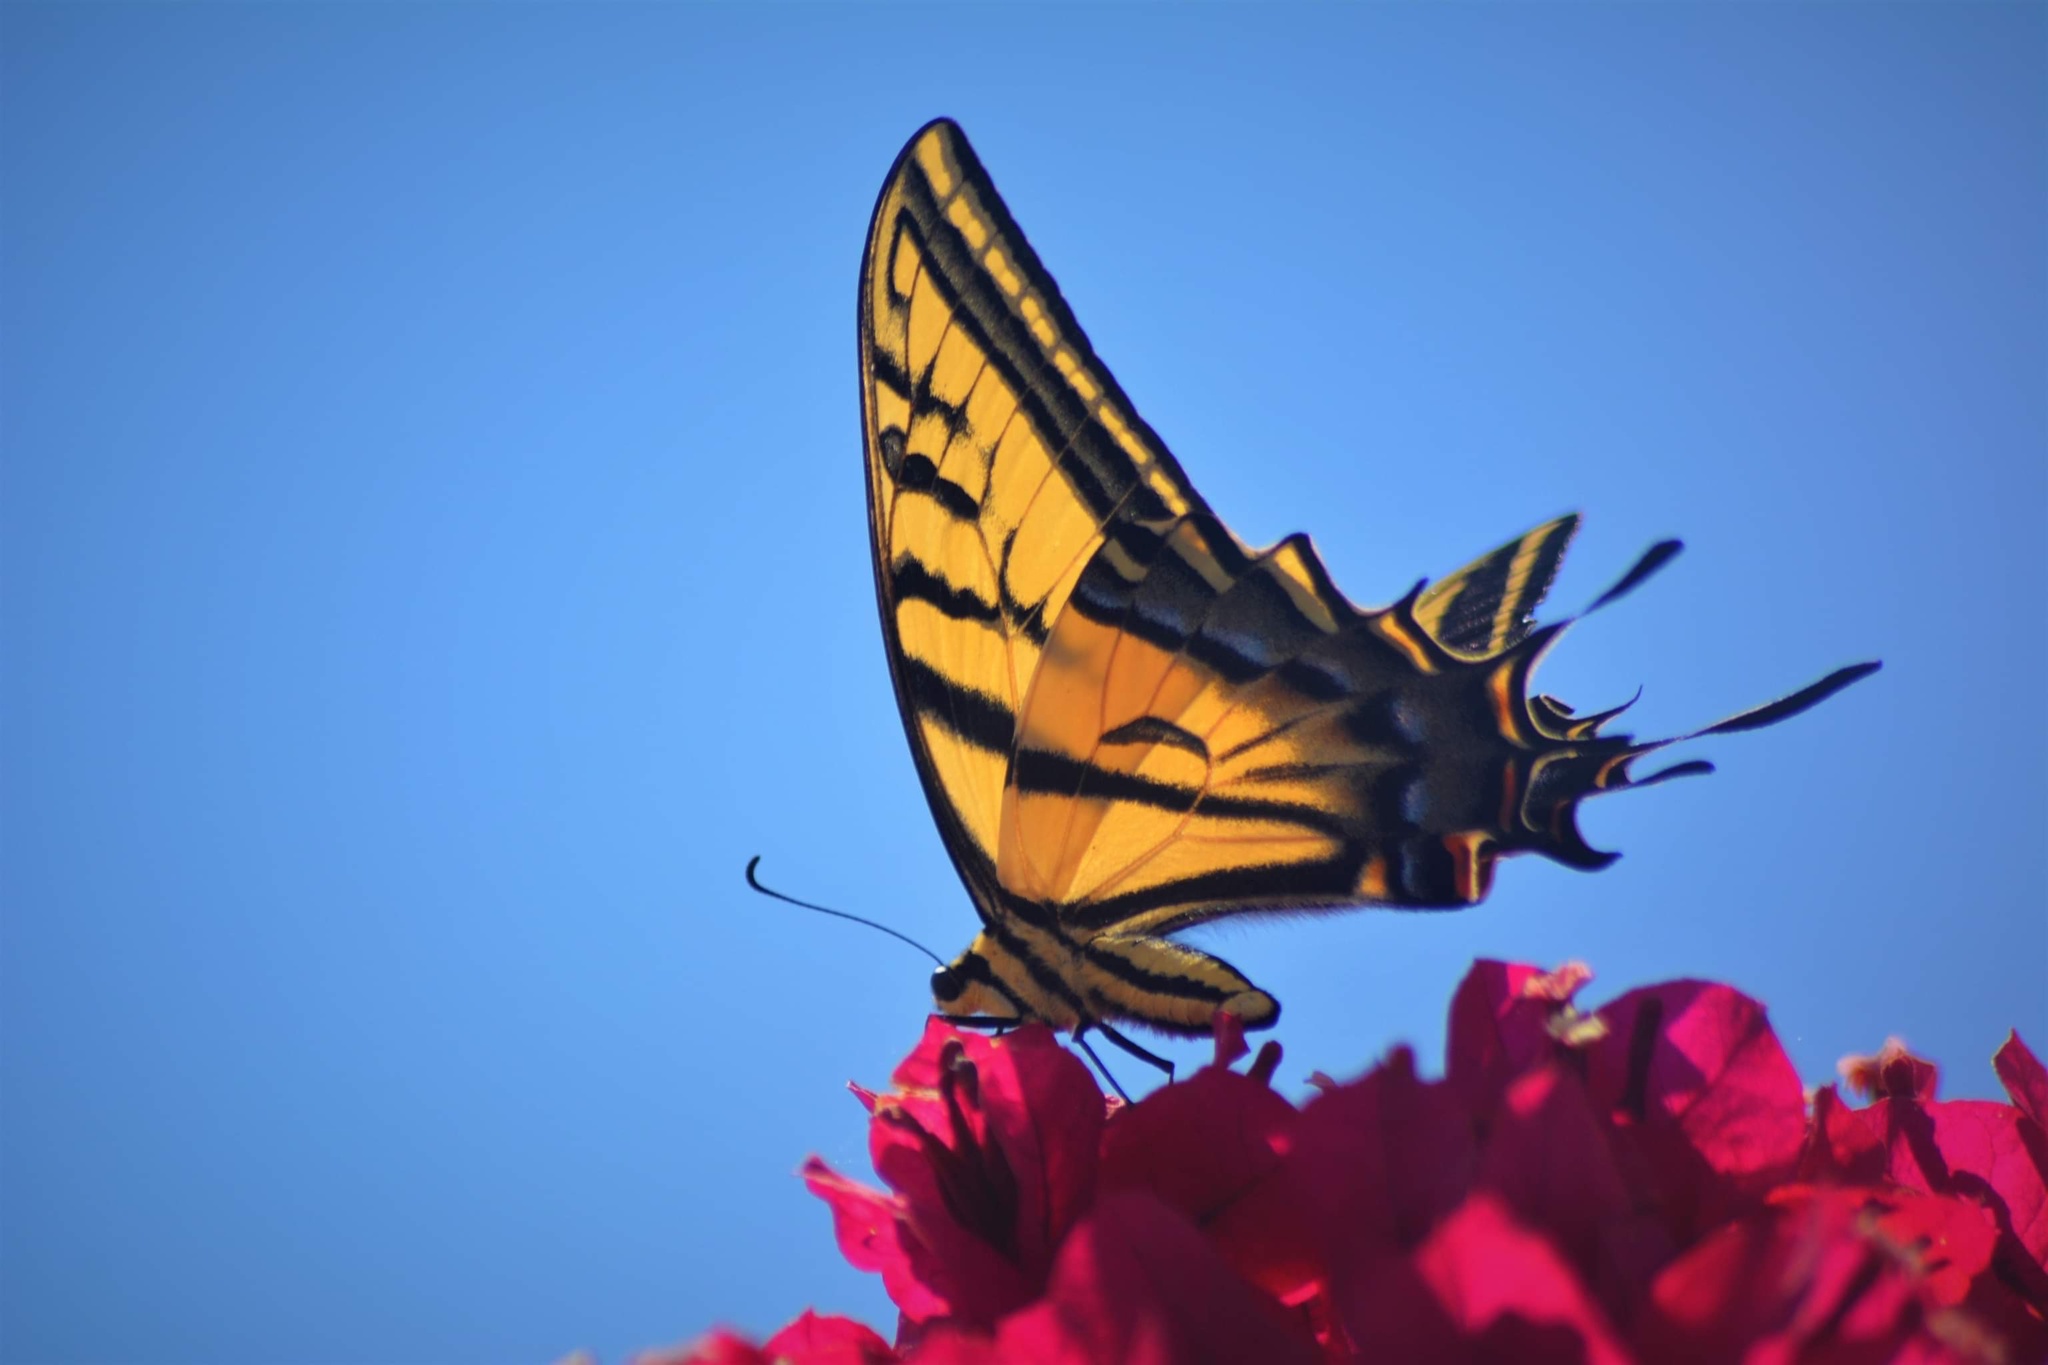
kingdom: Animalia
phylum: Arthropoda
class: Insecta
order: Lepidoptera
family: Papilionidae
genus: Papilio
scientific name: Papilio multicaudata
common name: Two-tailed tiger swallowtail
